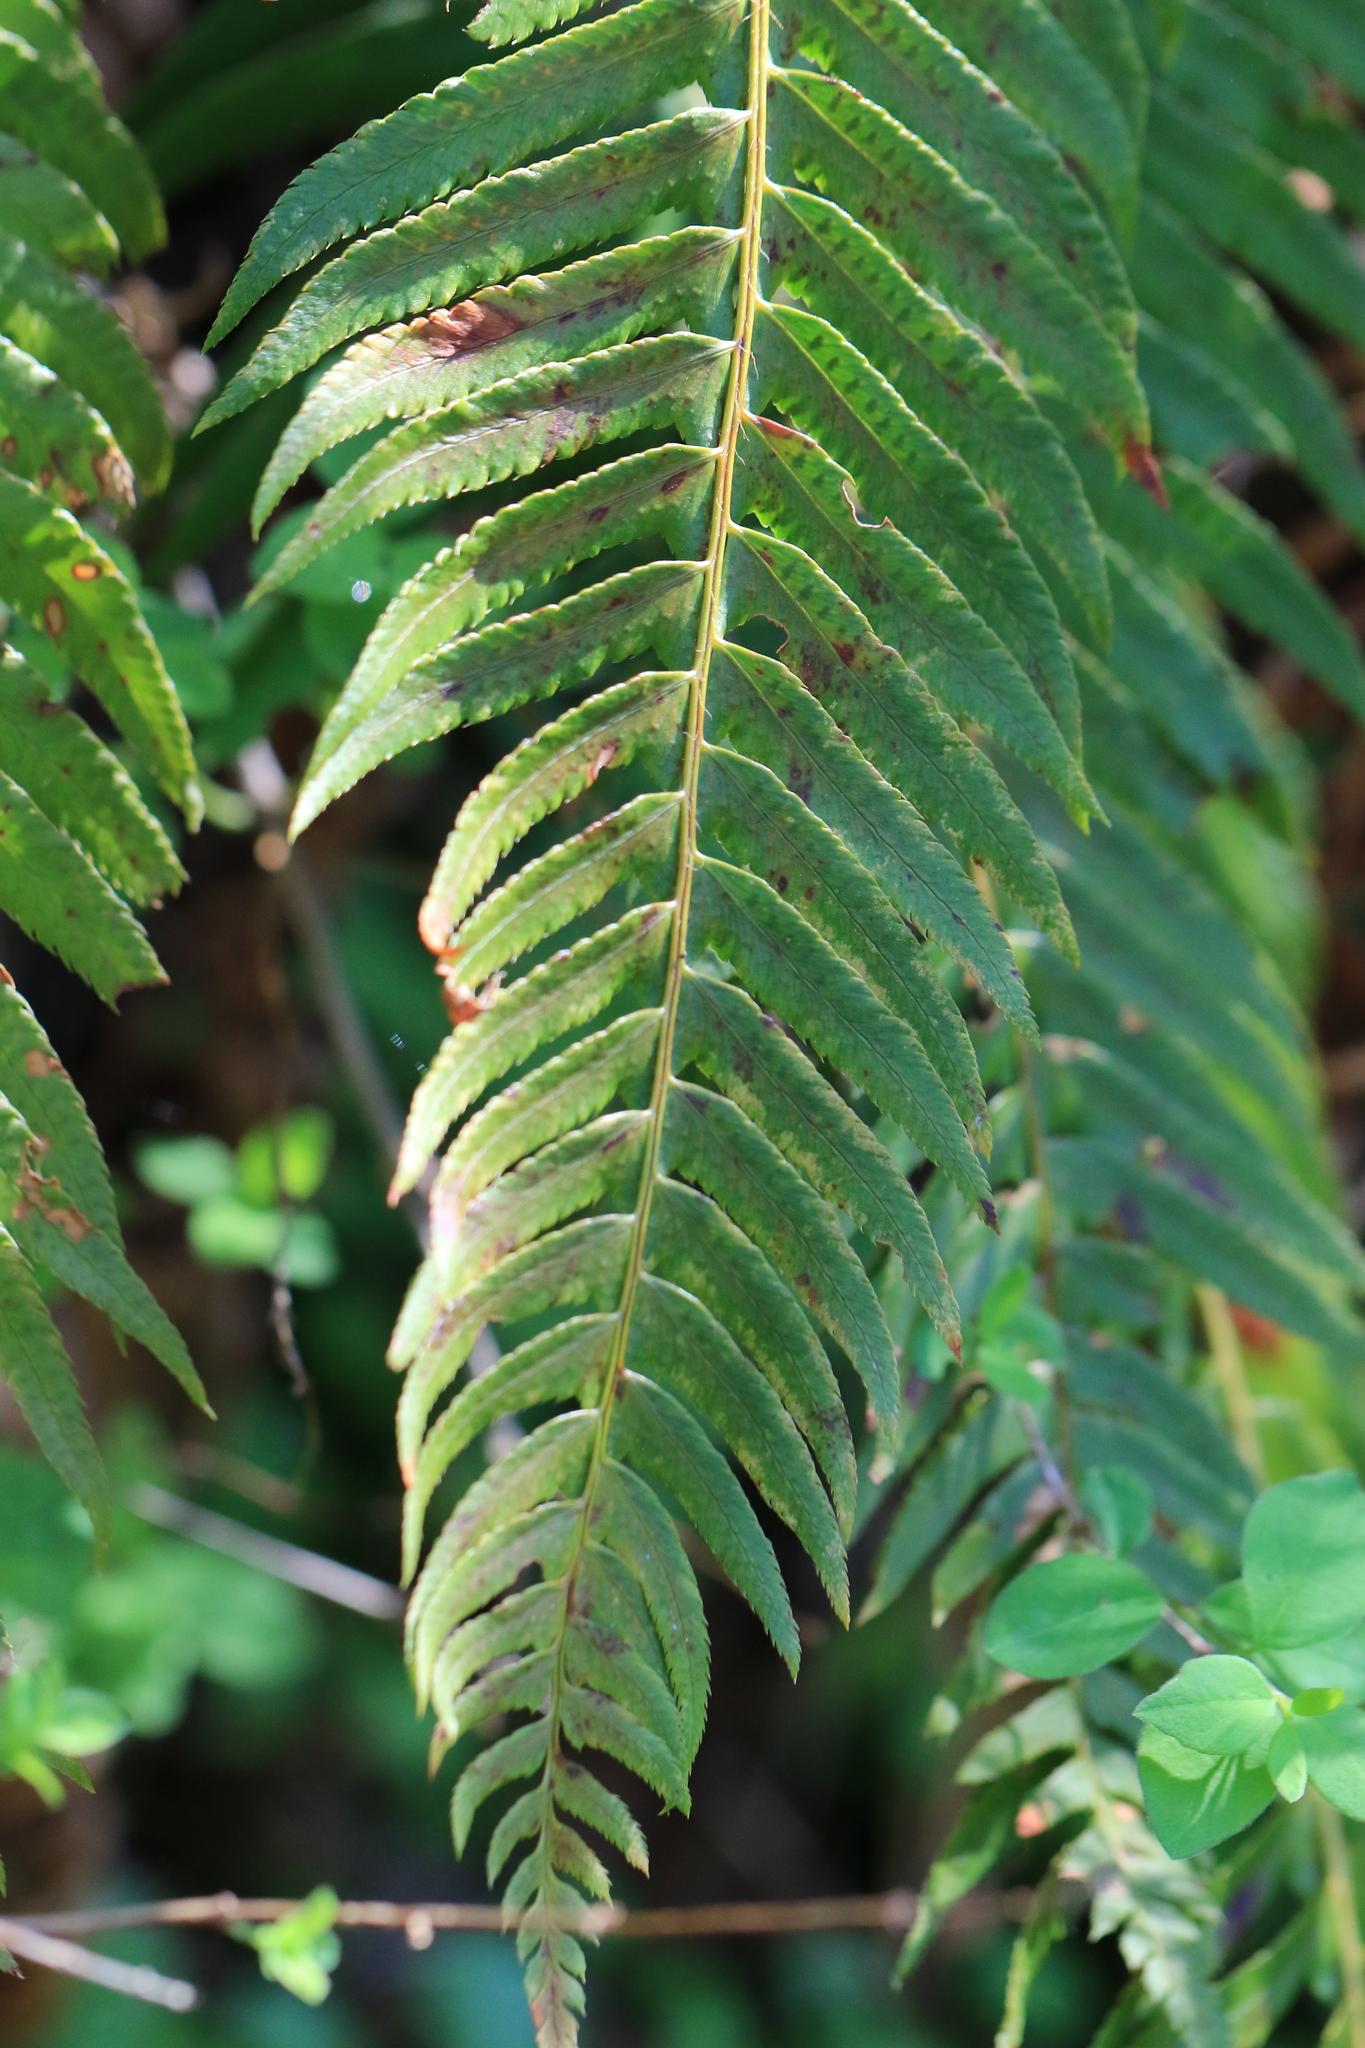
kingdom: Plantae
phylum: Tracheophyta
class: Polypodiopsida
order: Polypodiales
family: Dryopteridaceae
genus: Polystichum
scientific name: Polystichum munitum
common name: Western sword-fern
